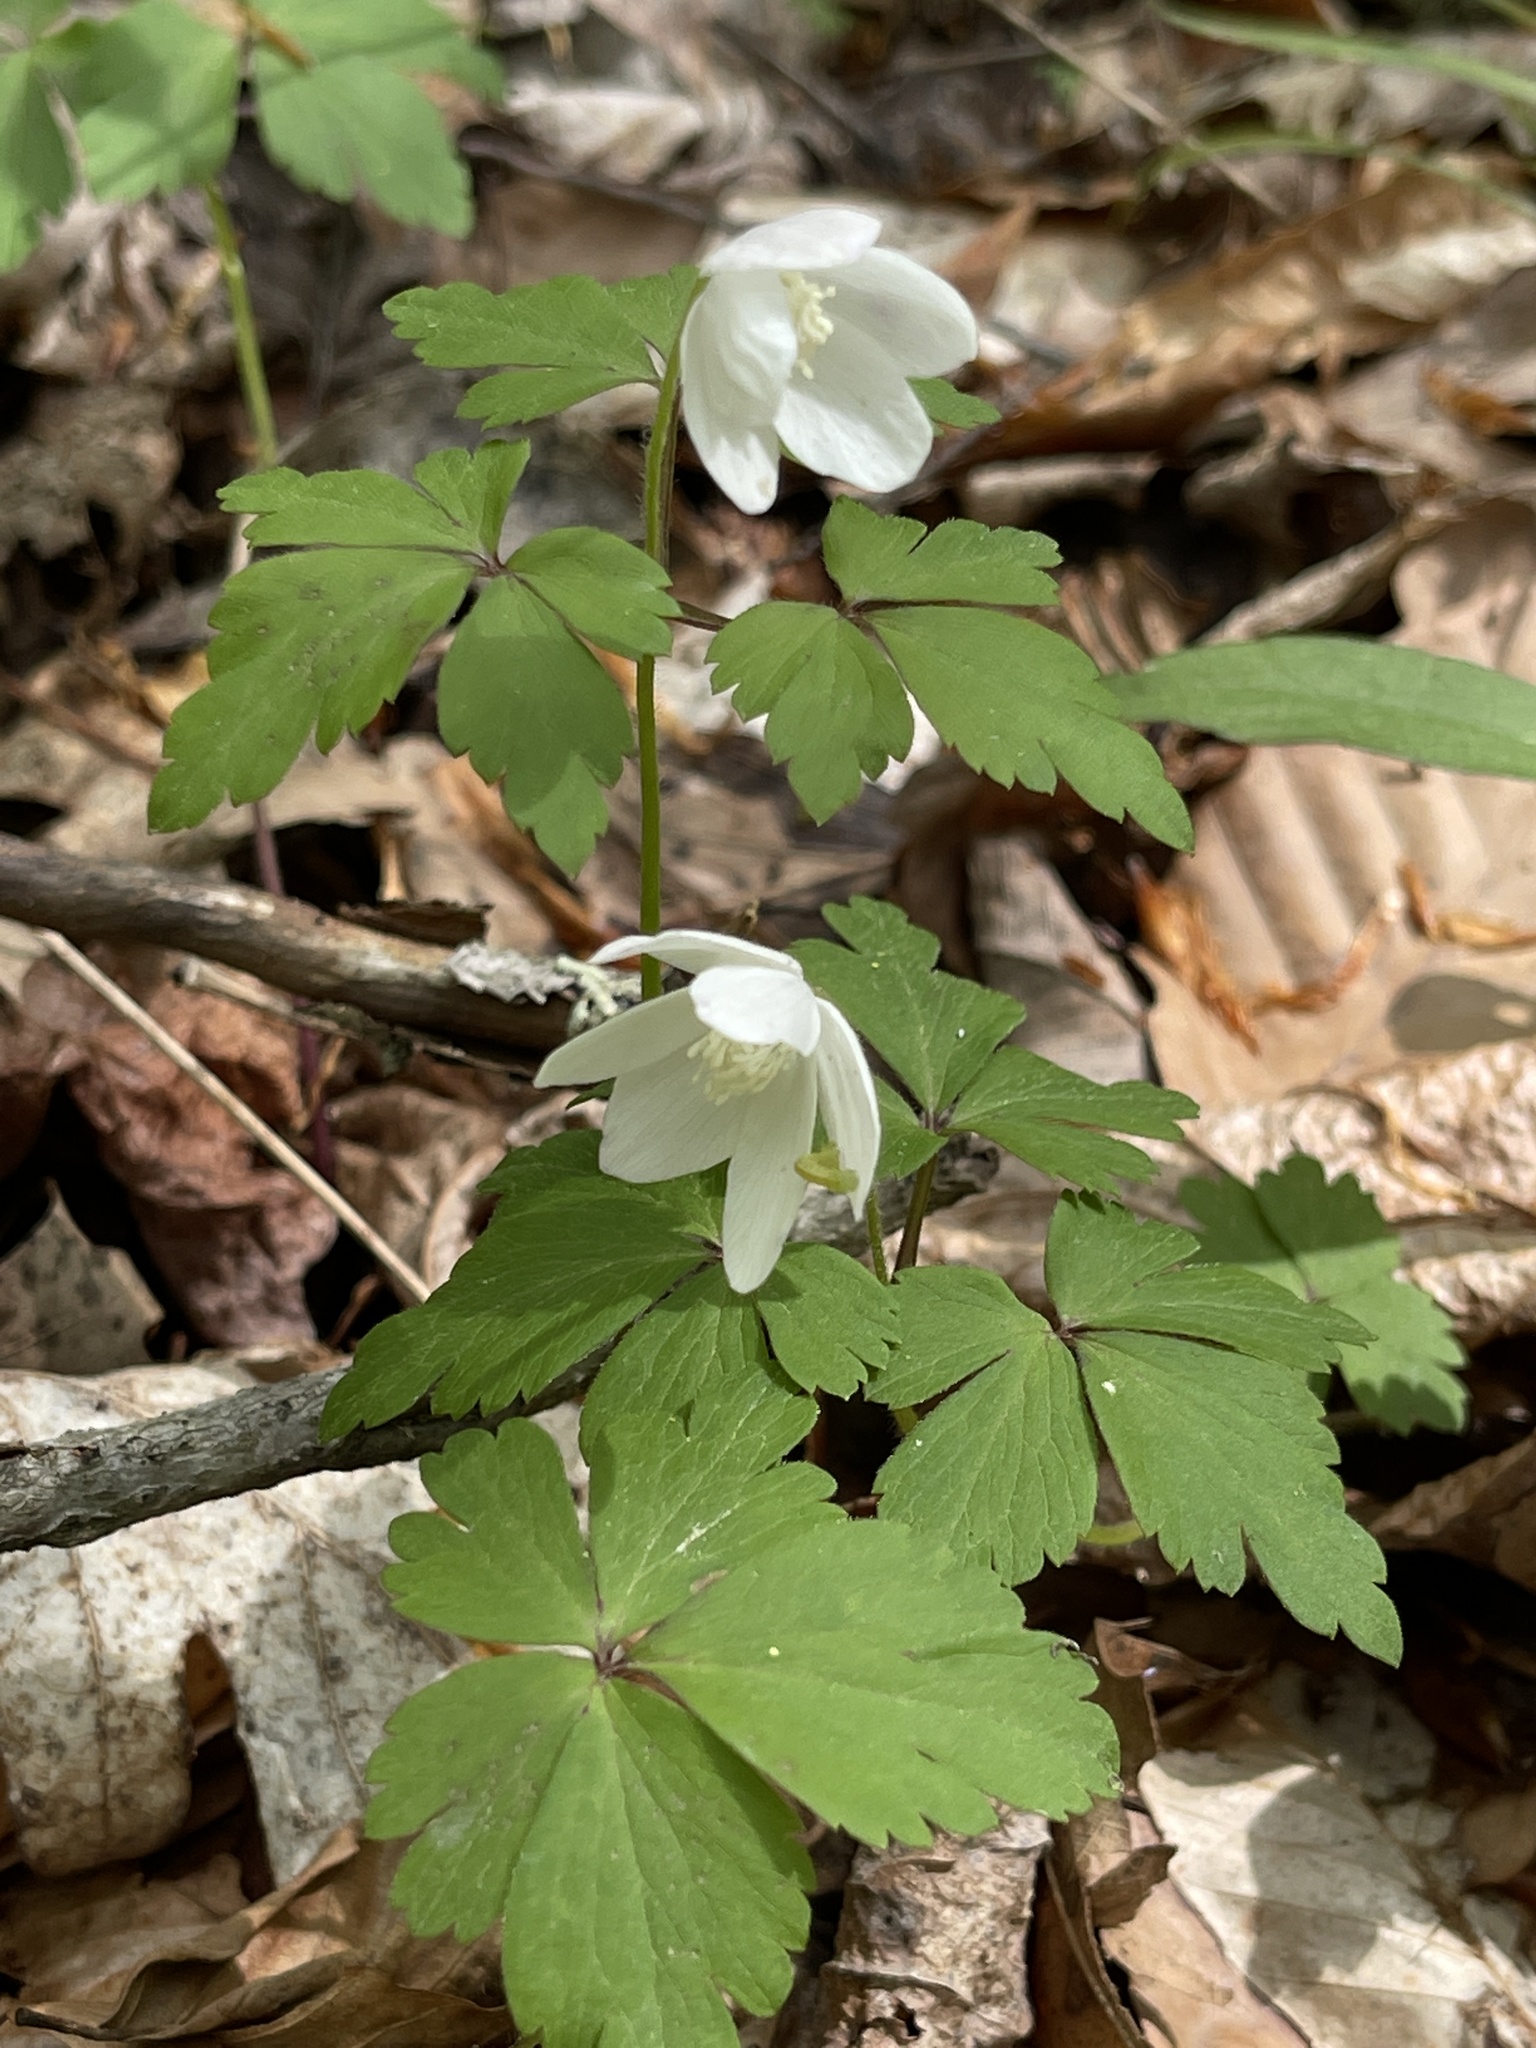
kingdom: Plantae
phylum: Tracheophyta
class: Magnoliopsida
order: Ranunculales
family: Ranunculaceae
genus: Anemone
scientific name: Anemone quinquefolia
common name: Wood anemone
